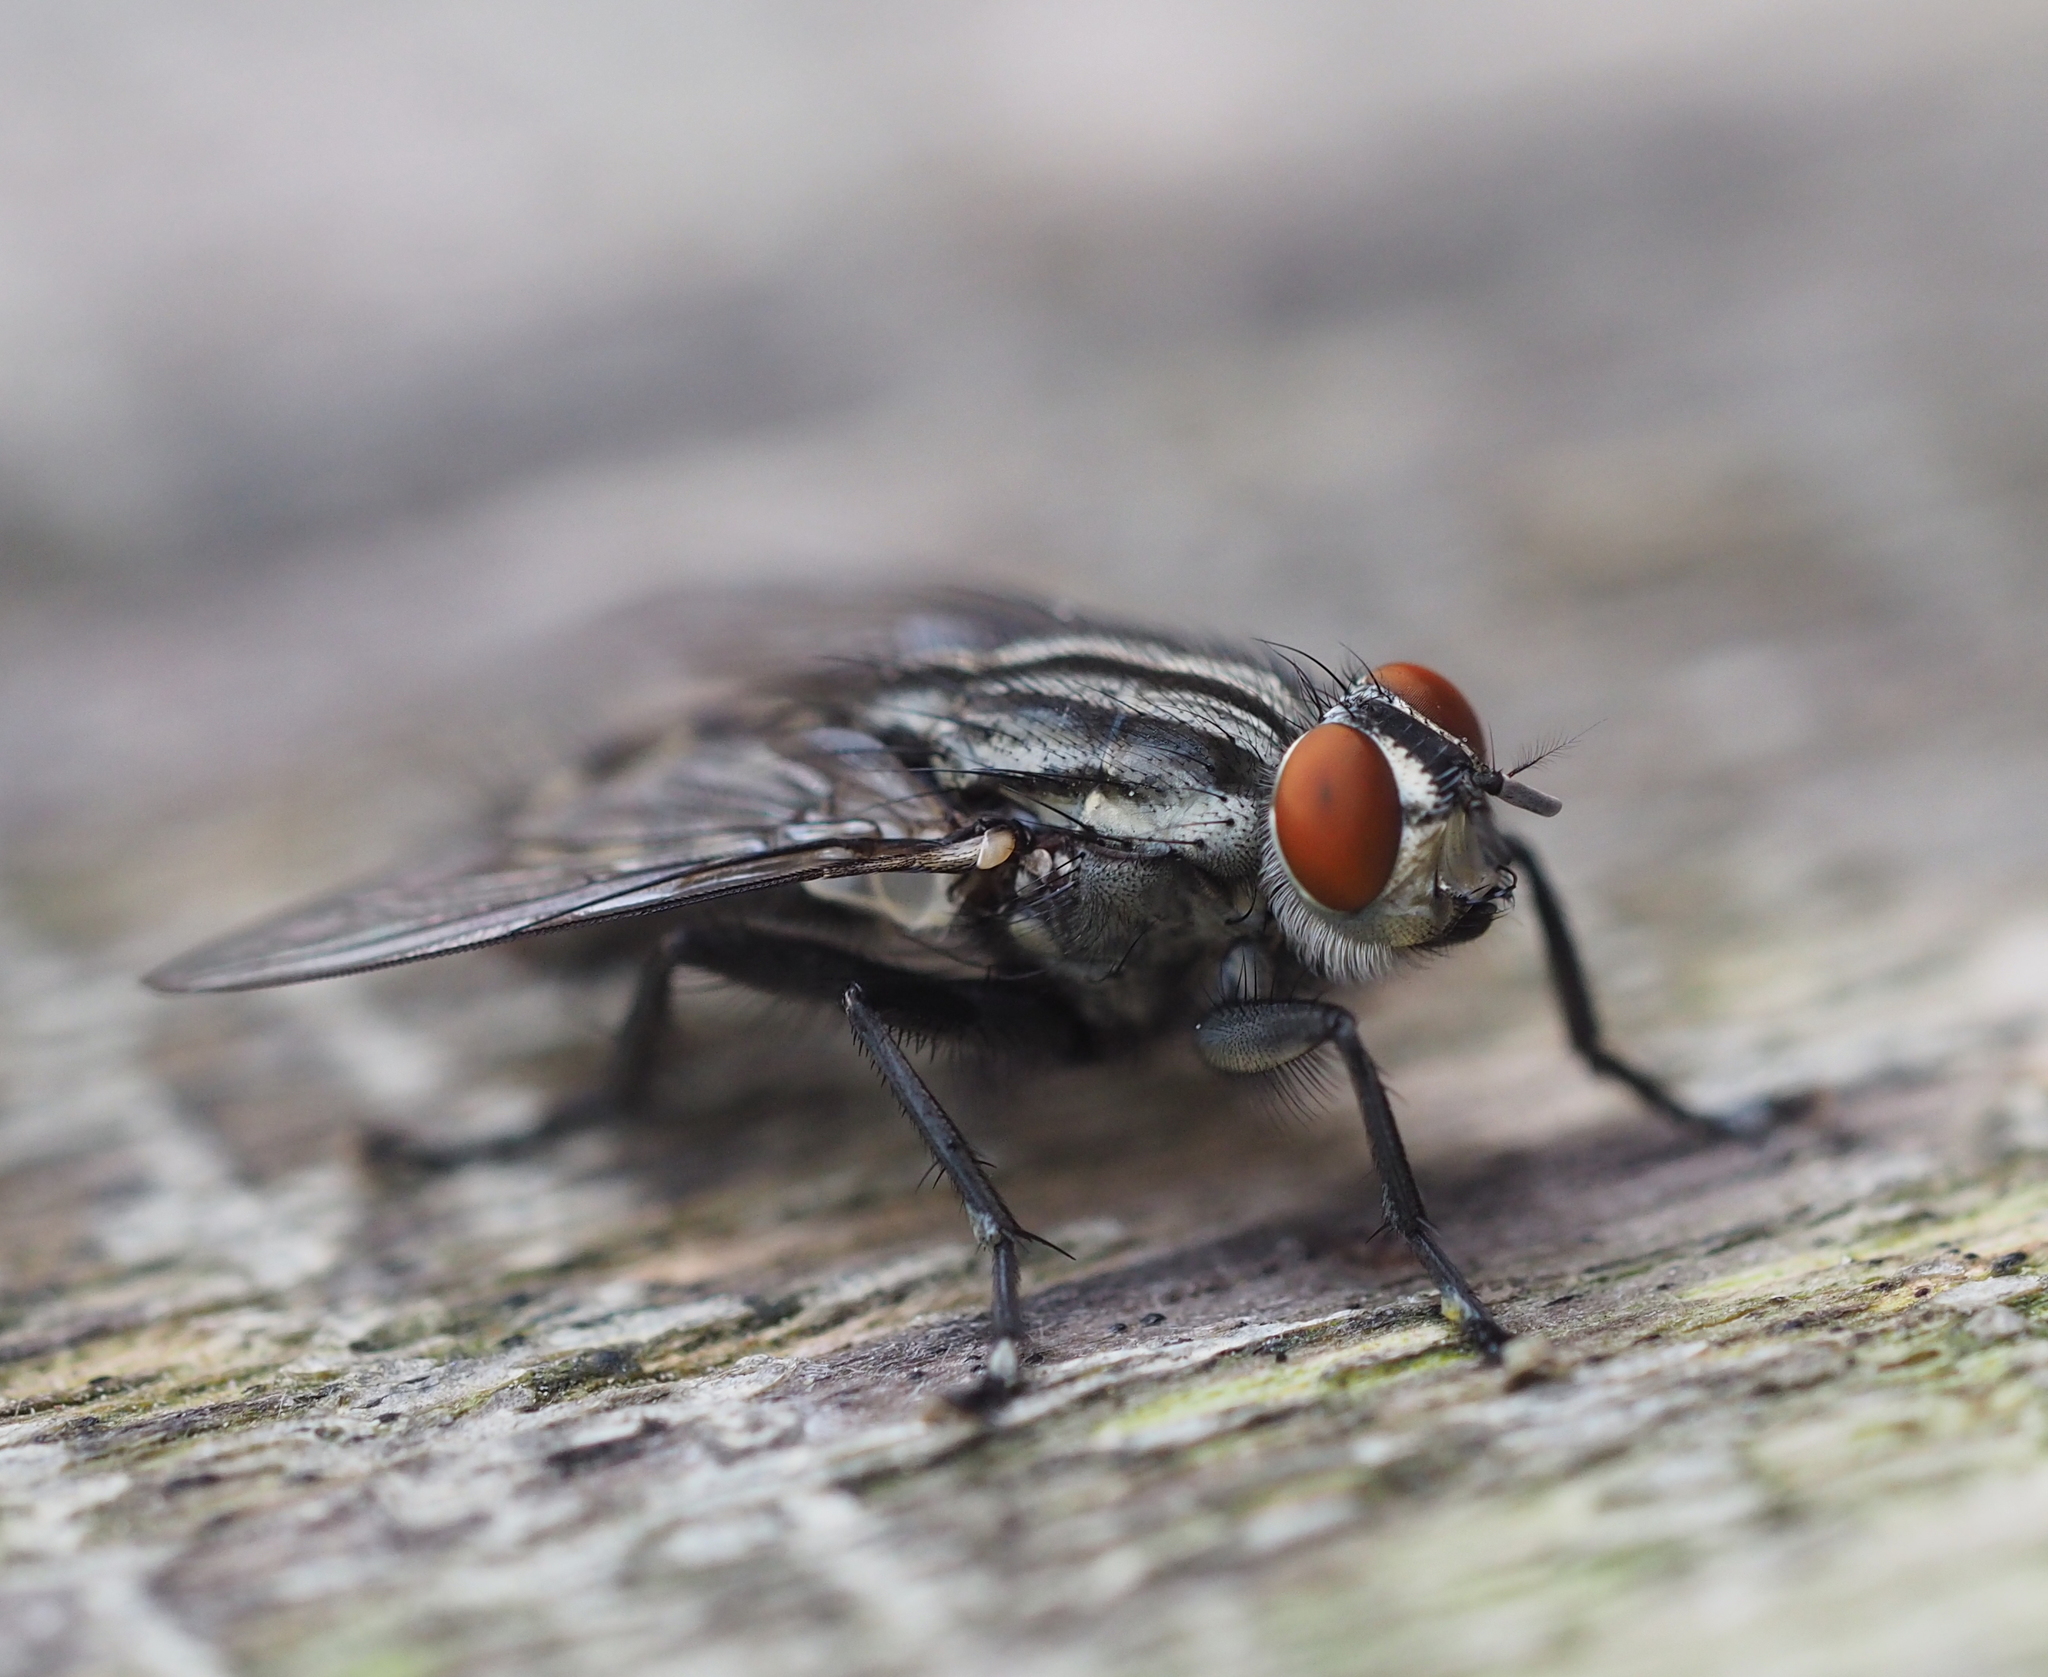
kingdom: Animalia
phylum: Arthropoda
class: Insecta
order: Diptera
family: Sarcophagidae
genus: Sarcophaga
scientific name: Sarcophaga africa
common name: Flesh fly
